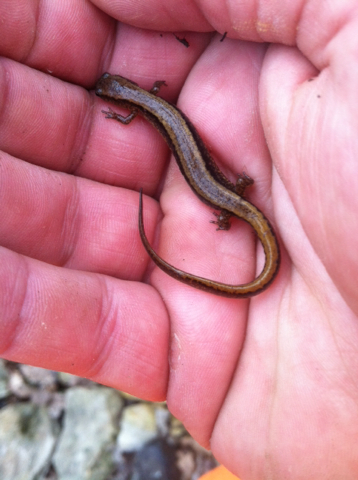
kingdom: Animalia
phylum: Chordata
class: Amphibia
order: Caudata
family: Plethodontidae
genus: Eurycea
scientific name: Eurycea cirrigera
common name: Southern two-lined salamander
